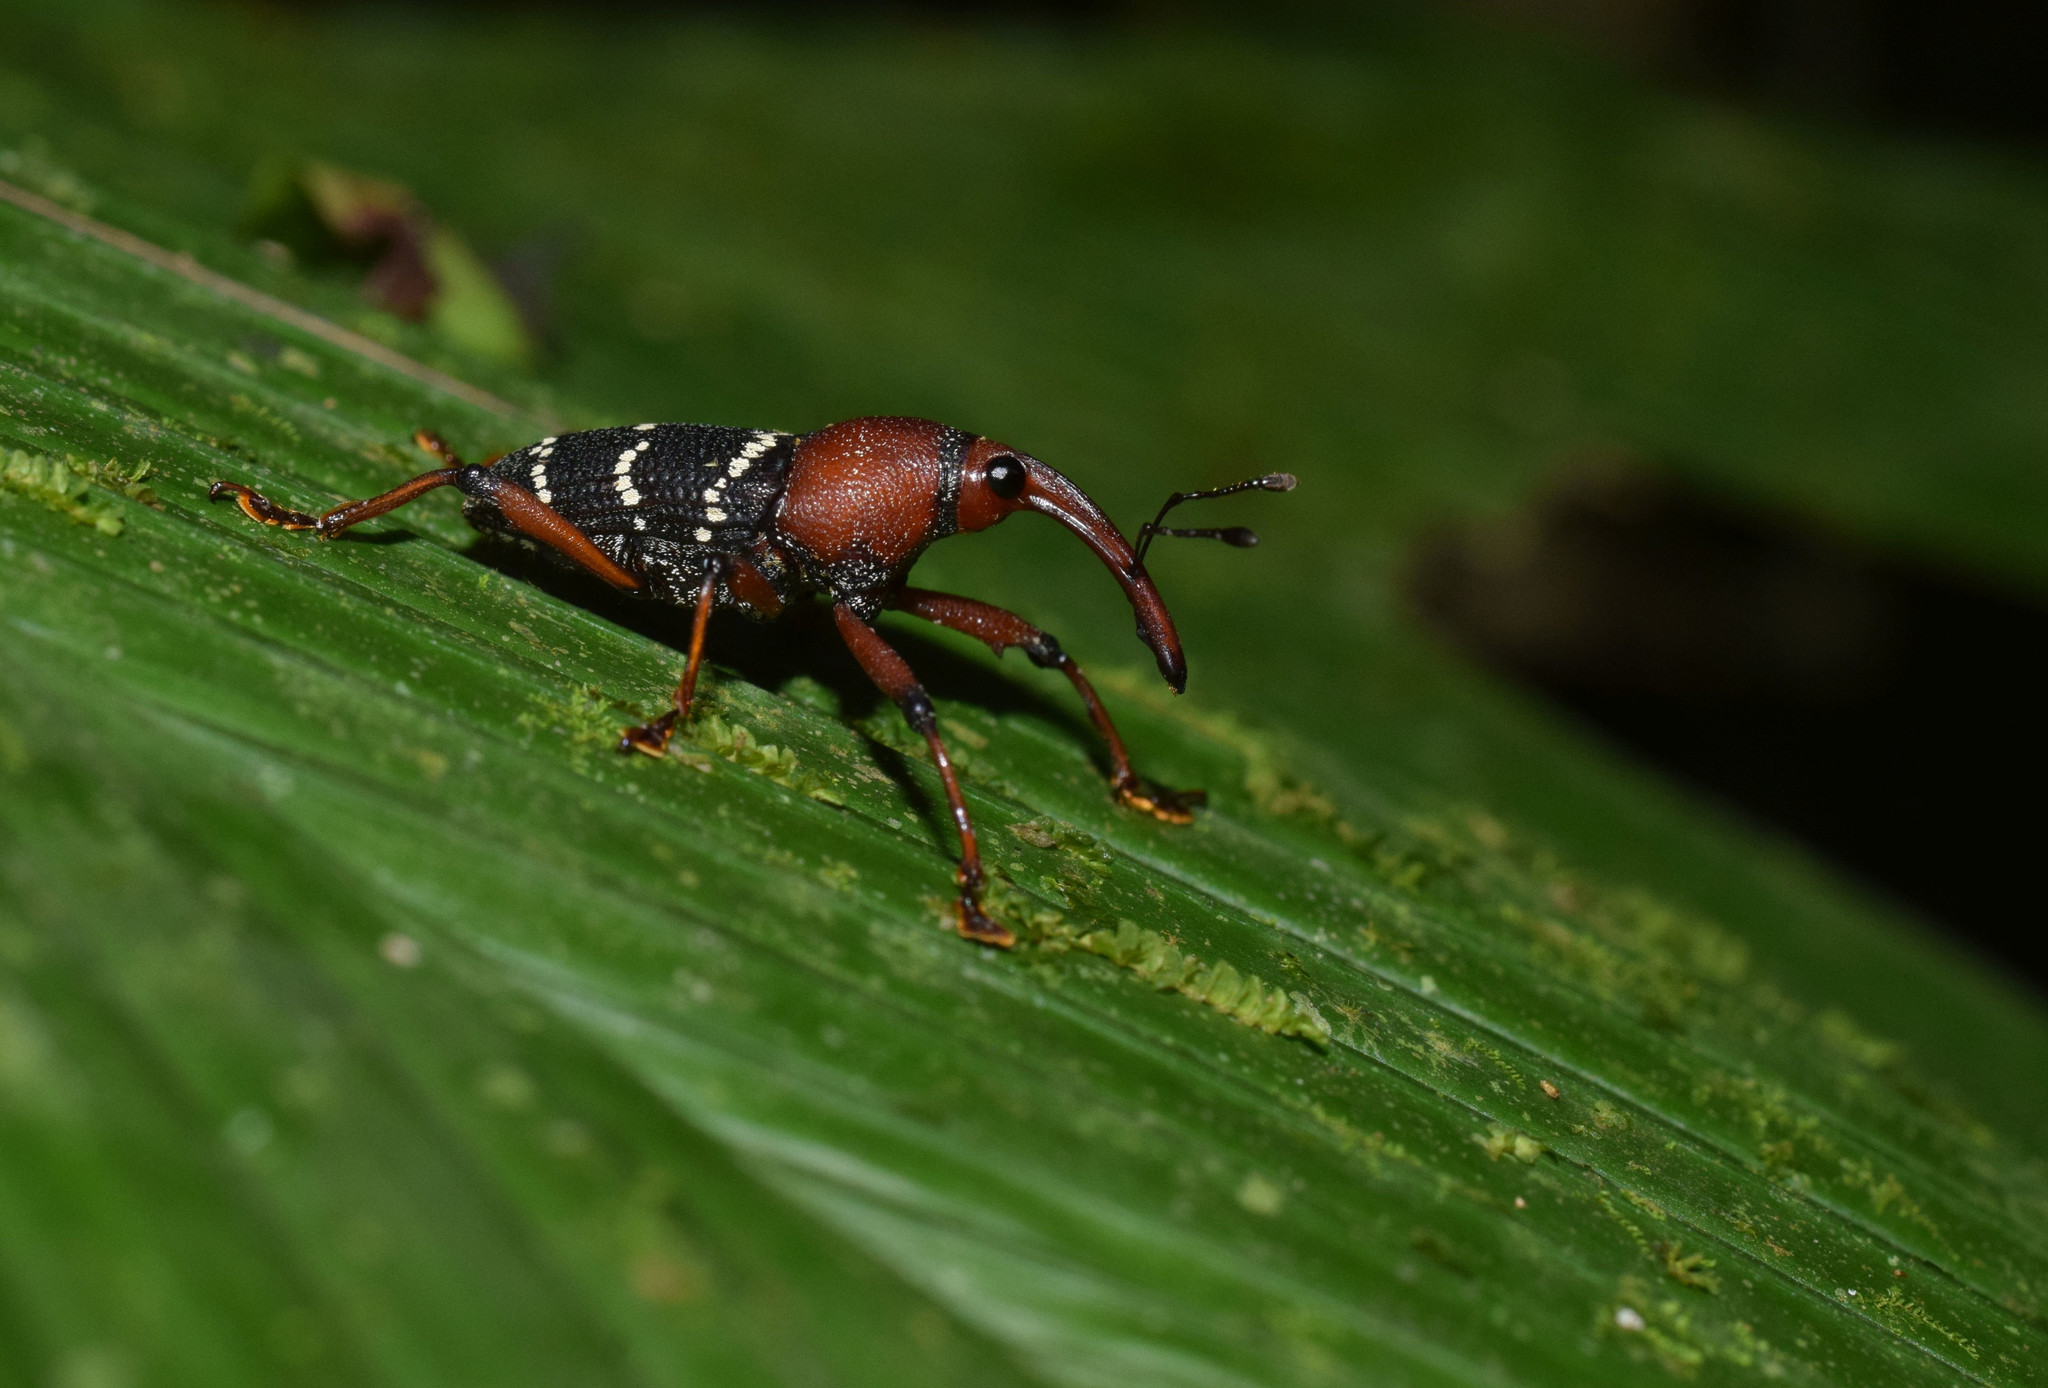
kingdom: Animalia
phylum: Arthropoda
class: Insecta
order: Coleoptera
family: Curculionidae
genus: Cholus
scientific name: Cholus nevermanni
